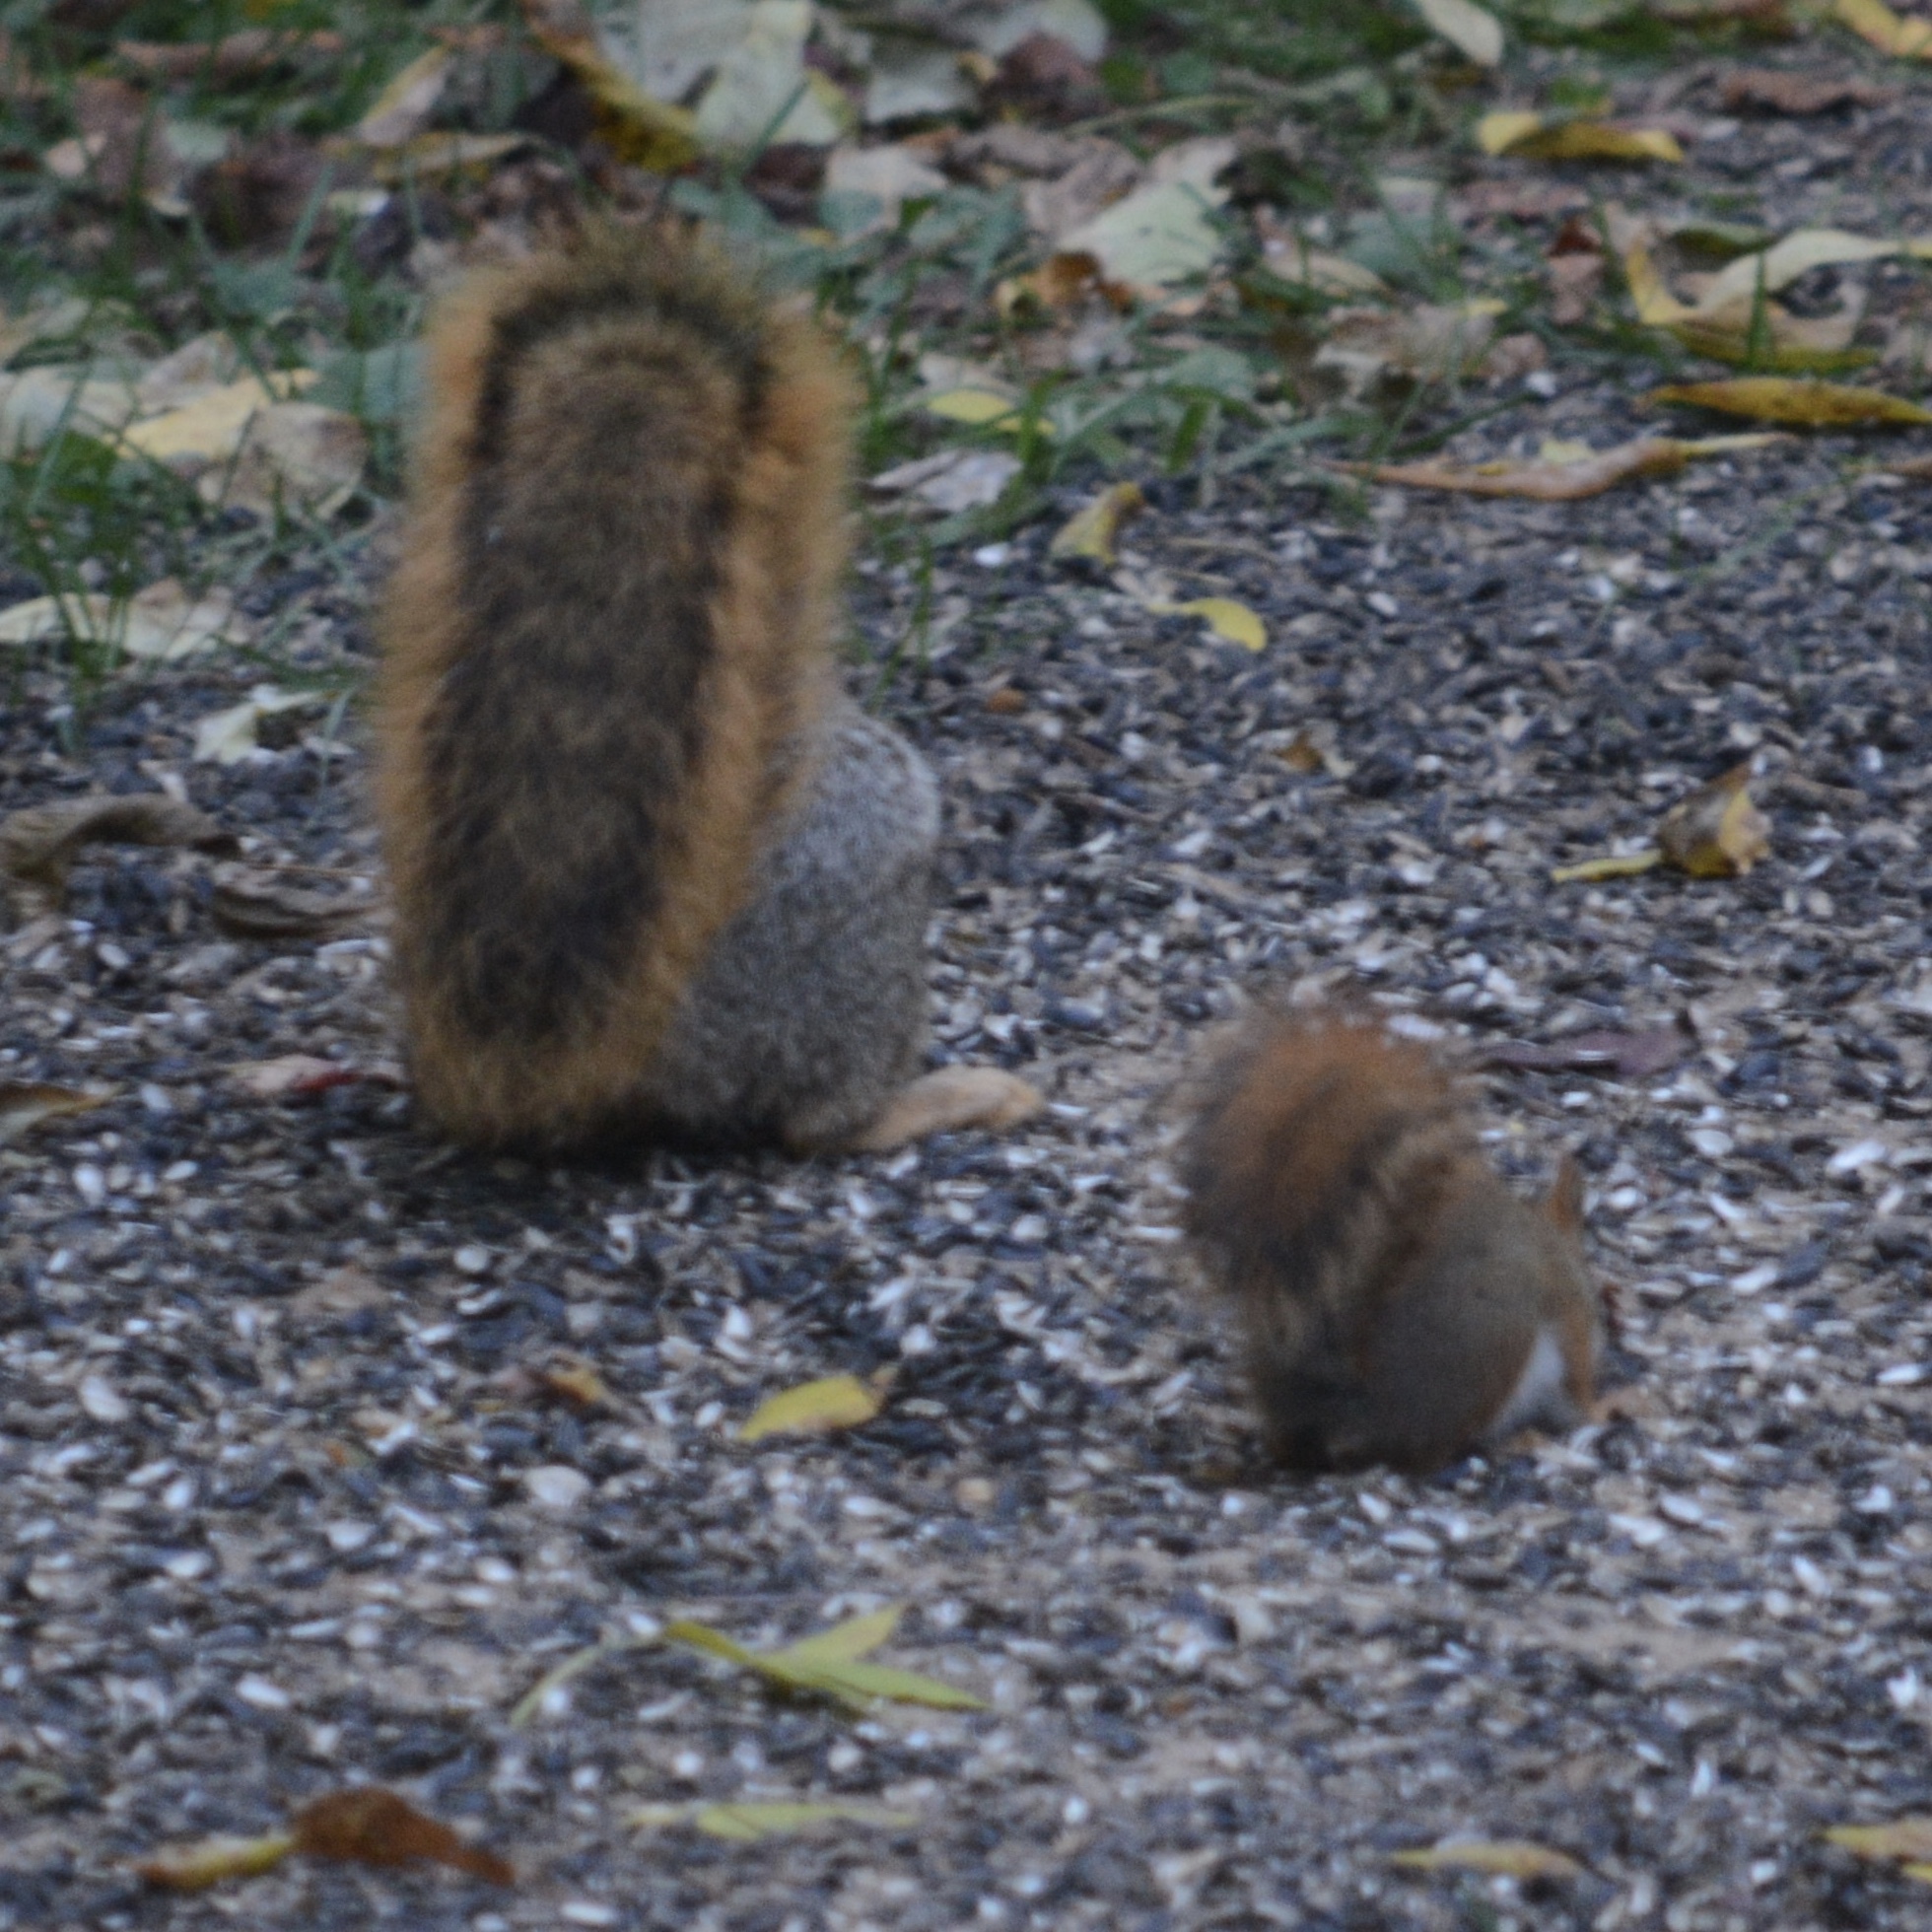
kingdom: Animalia
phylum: Chordata
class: Mammalia
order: Rodentia
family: Sciuridae
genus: Sciurus
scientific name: Sciurus niger
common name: Fox squirrel
